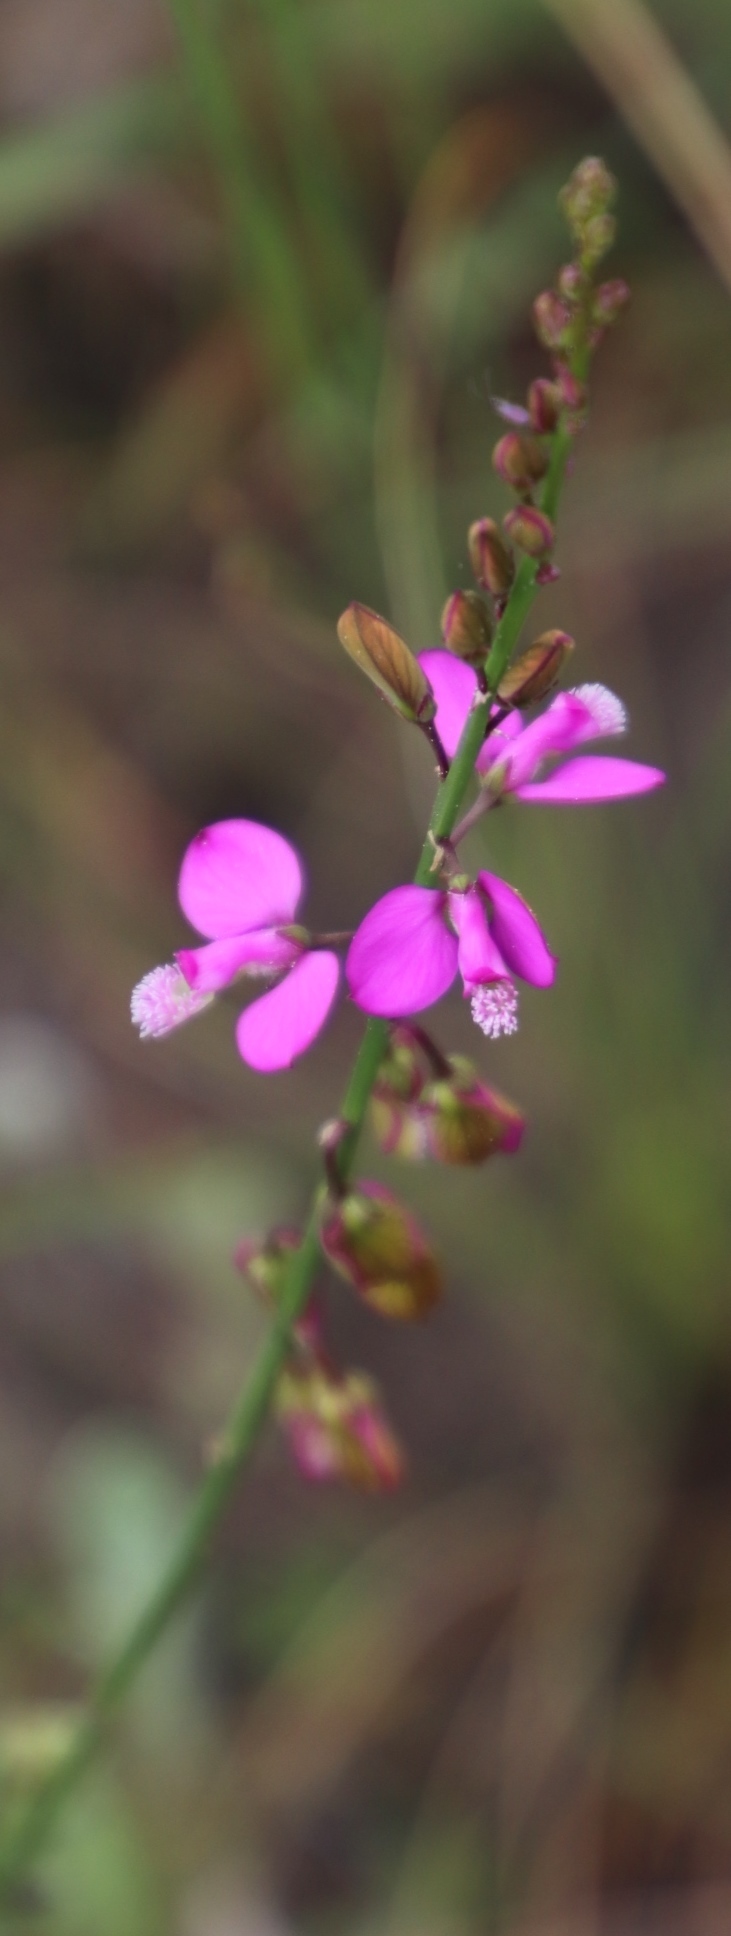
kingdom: Plantae
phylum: Tracheophyta
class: Magnoliopsida
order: Fabales
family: Polygalaceae
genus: Polygala
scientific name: Polygala garcini
